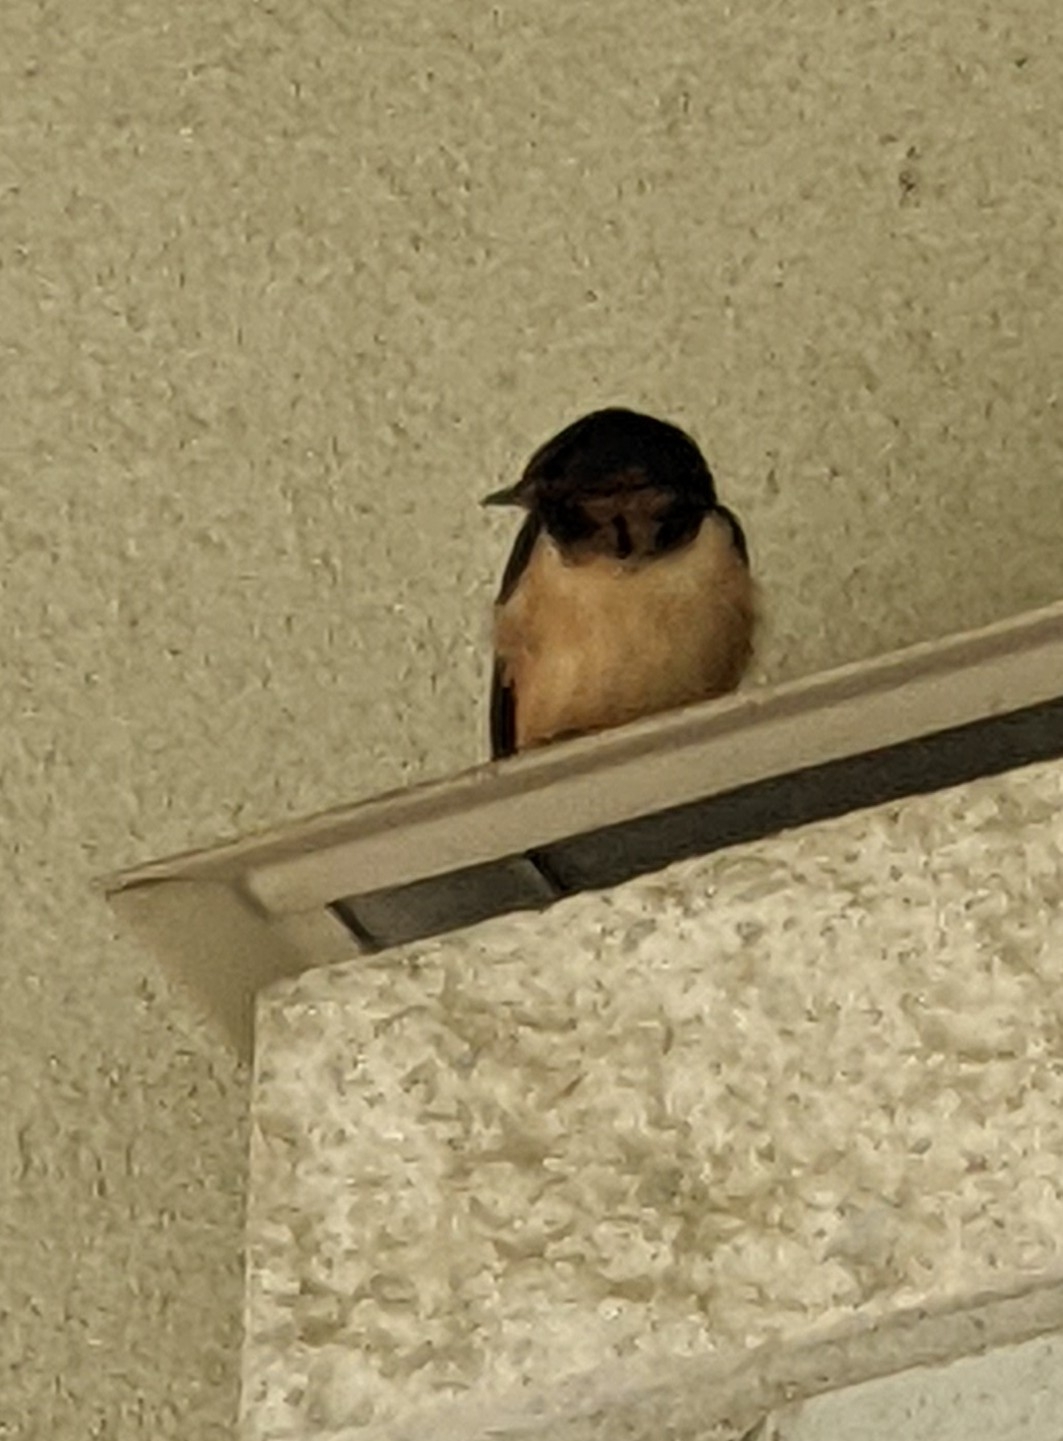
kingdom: Animalia
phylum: Chordata
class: Aves
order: Passeriformes
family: Hirundinidae
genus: Hirundo
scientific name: Hirundo rustica
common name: Barn swallow
